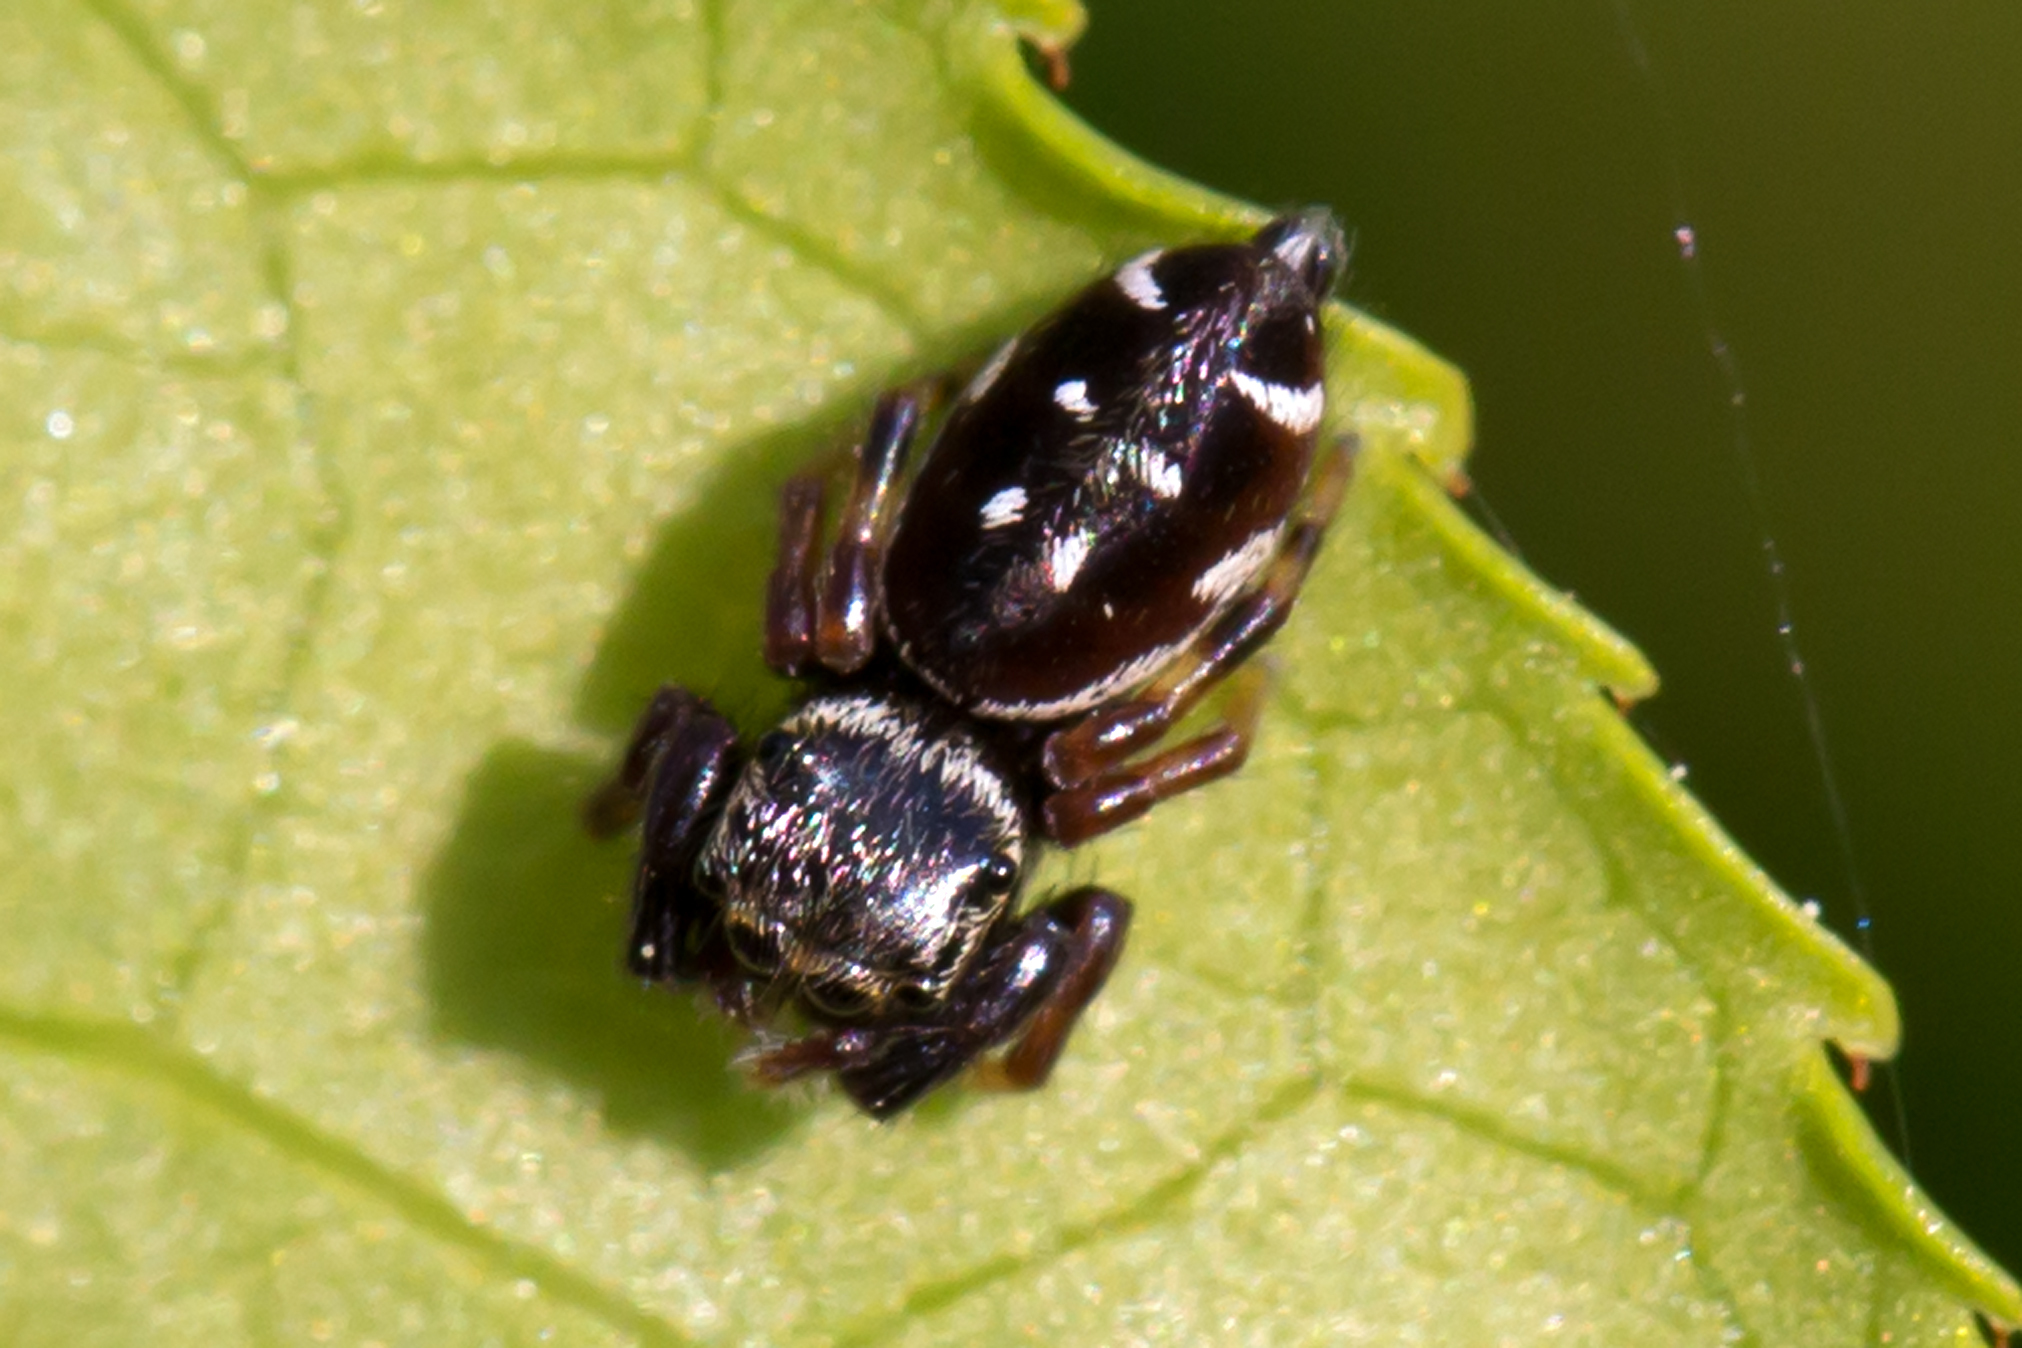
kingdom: Animalia
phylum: Arthropoda
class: Arachnida
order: Araneae
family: Salticidae
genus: Paraphidippus
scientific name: Paraphidippus aurantius
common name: Jumping spiders
